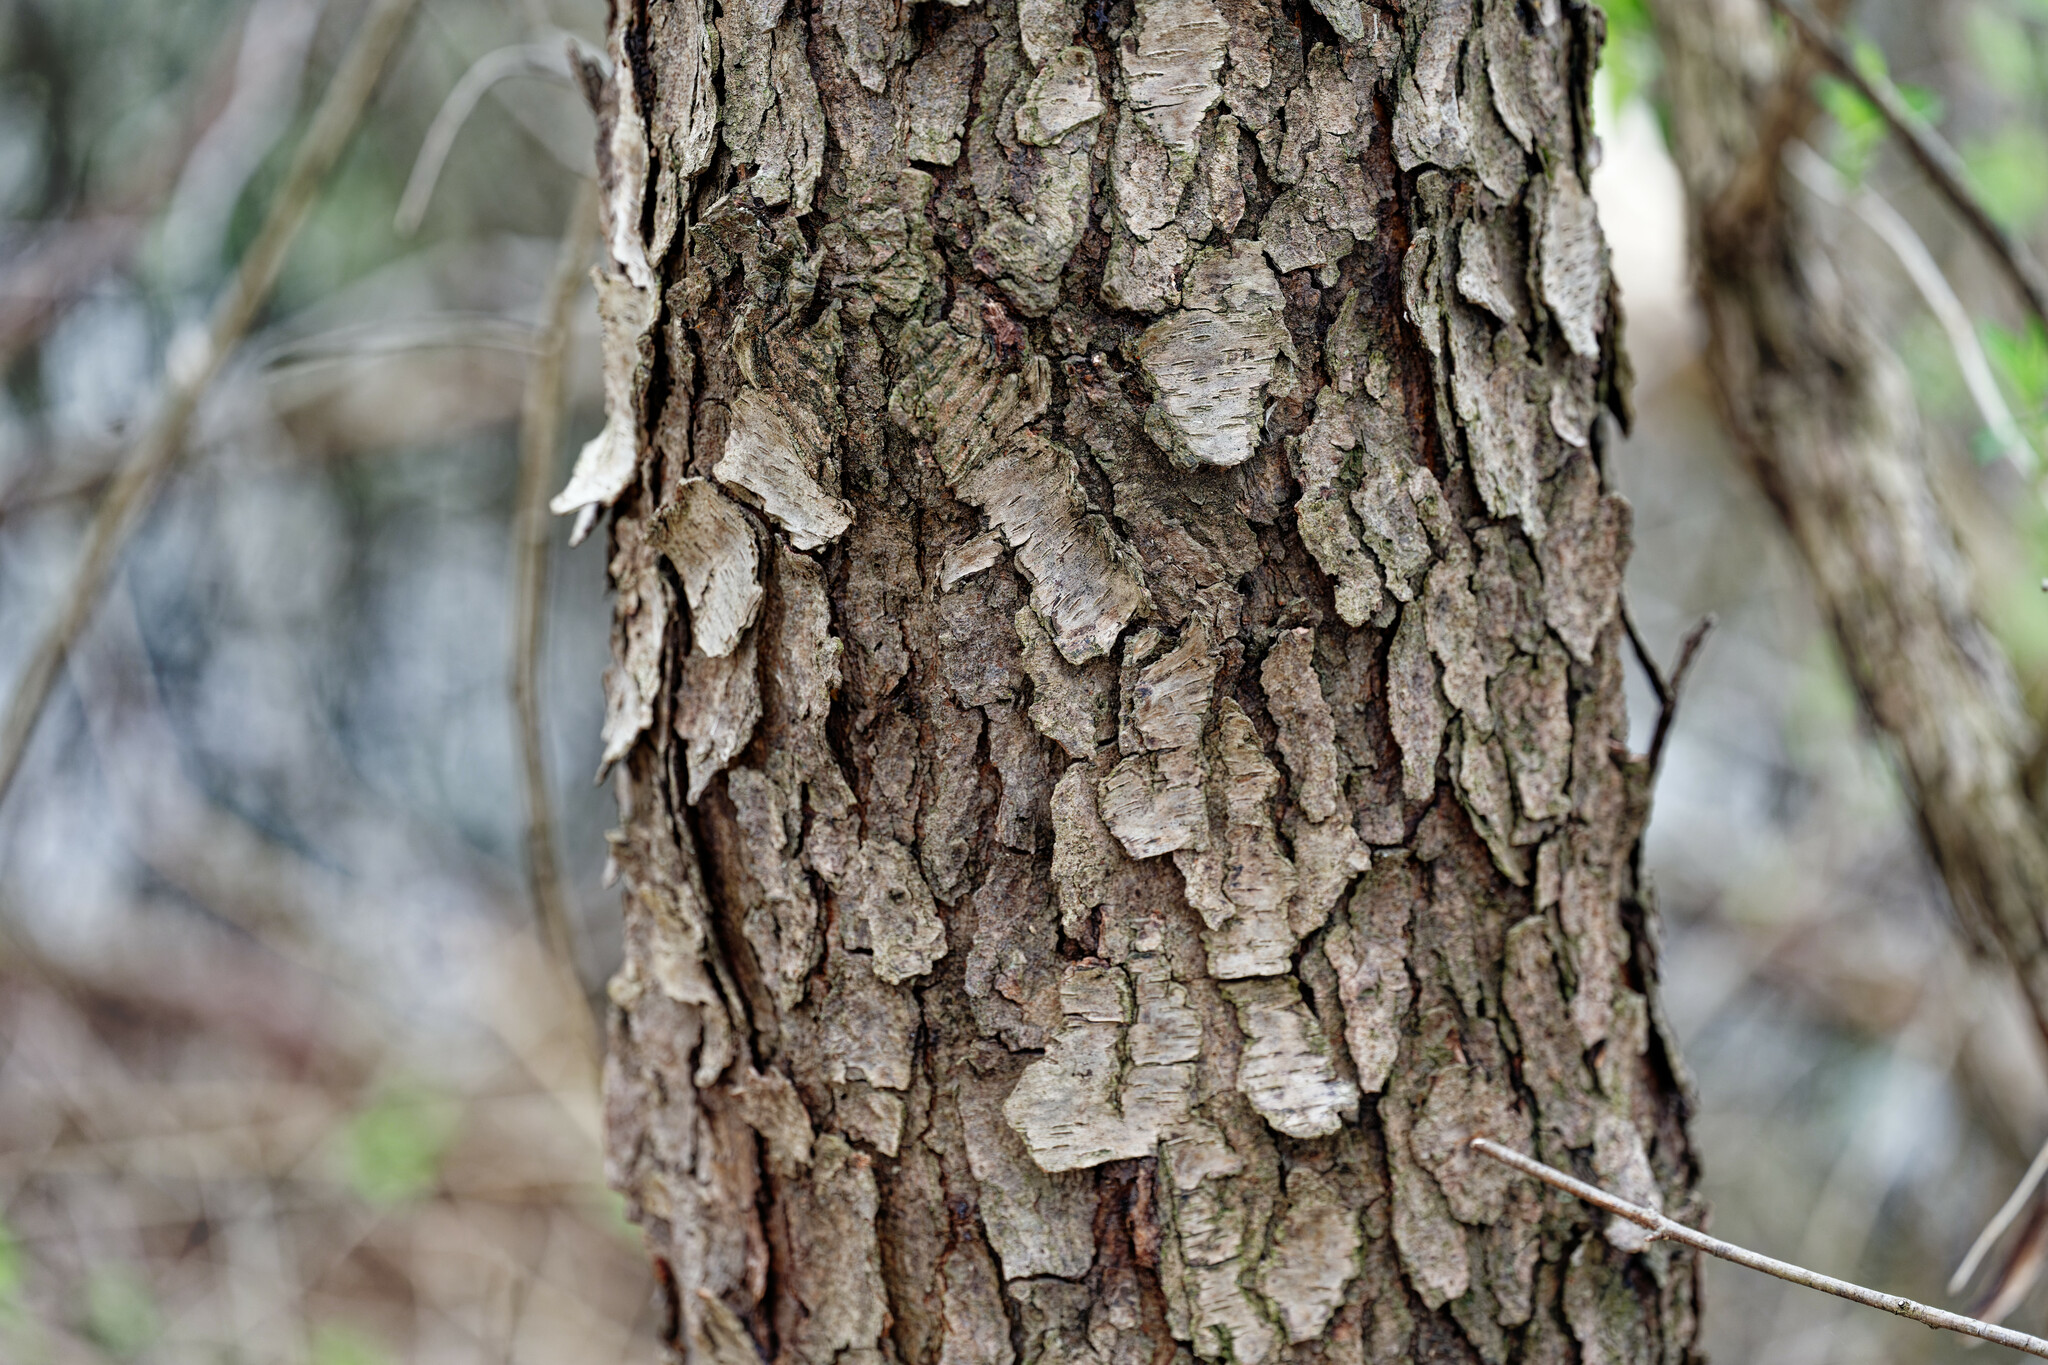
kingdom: Plantae
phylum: Tracheophyta
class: Magnoliopsida
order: Rosales
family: Rosaceae
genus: Prunus
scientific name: Prunus serotina
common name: Black cherry
